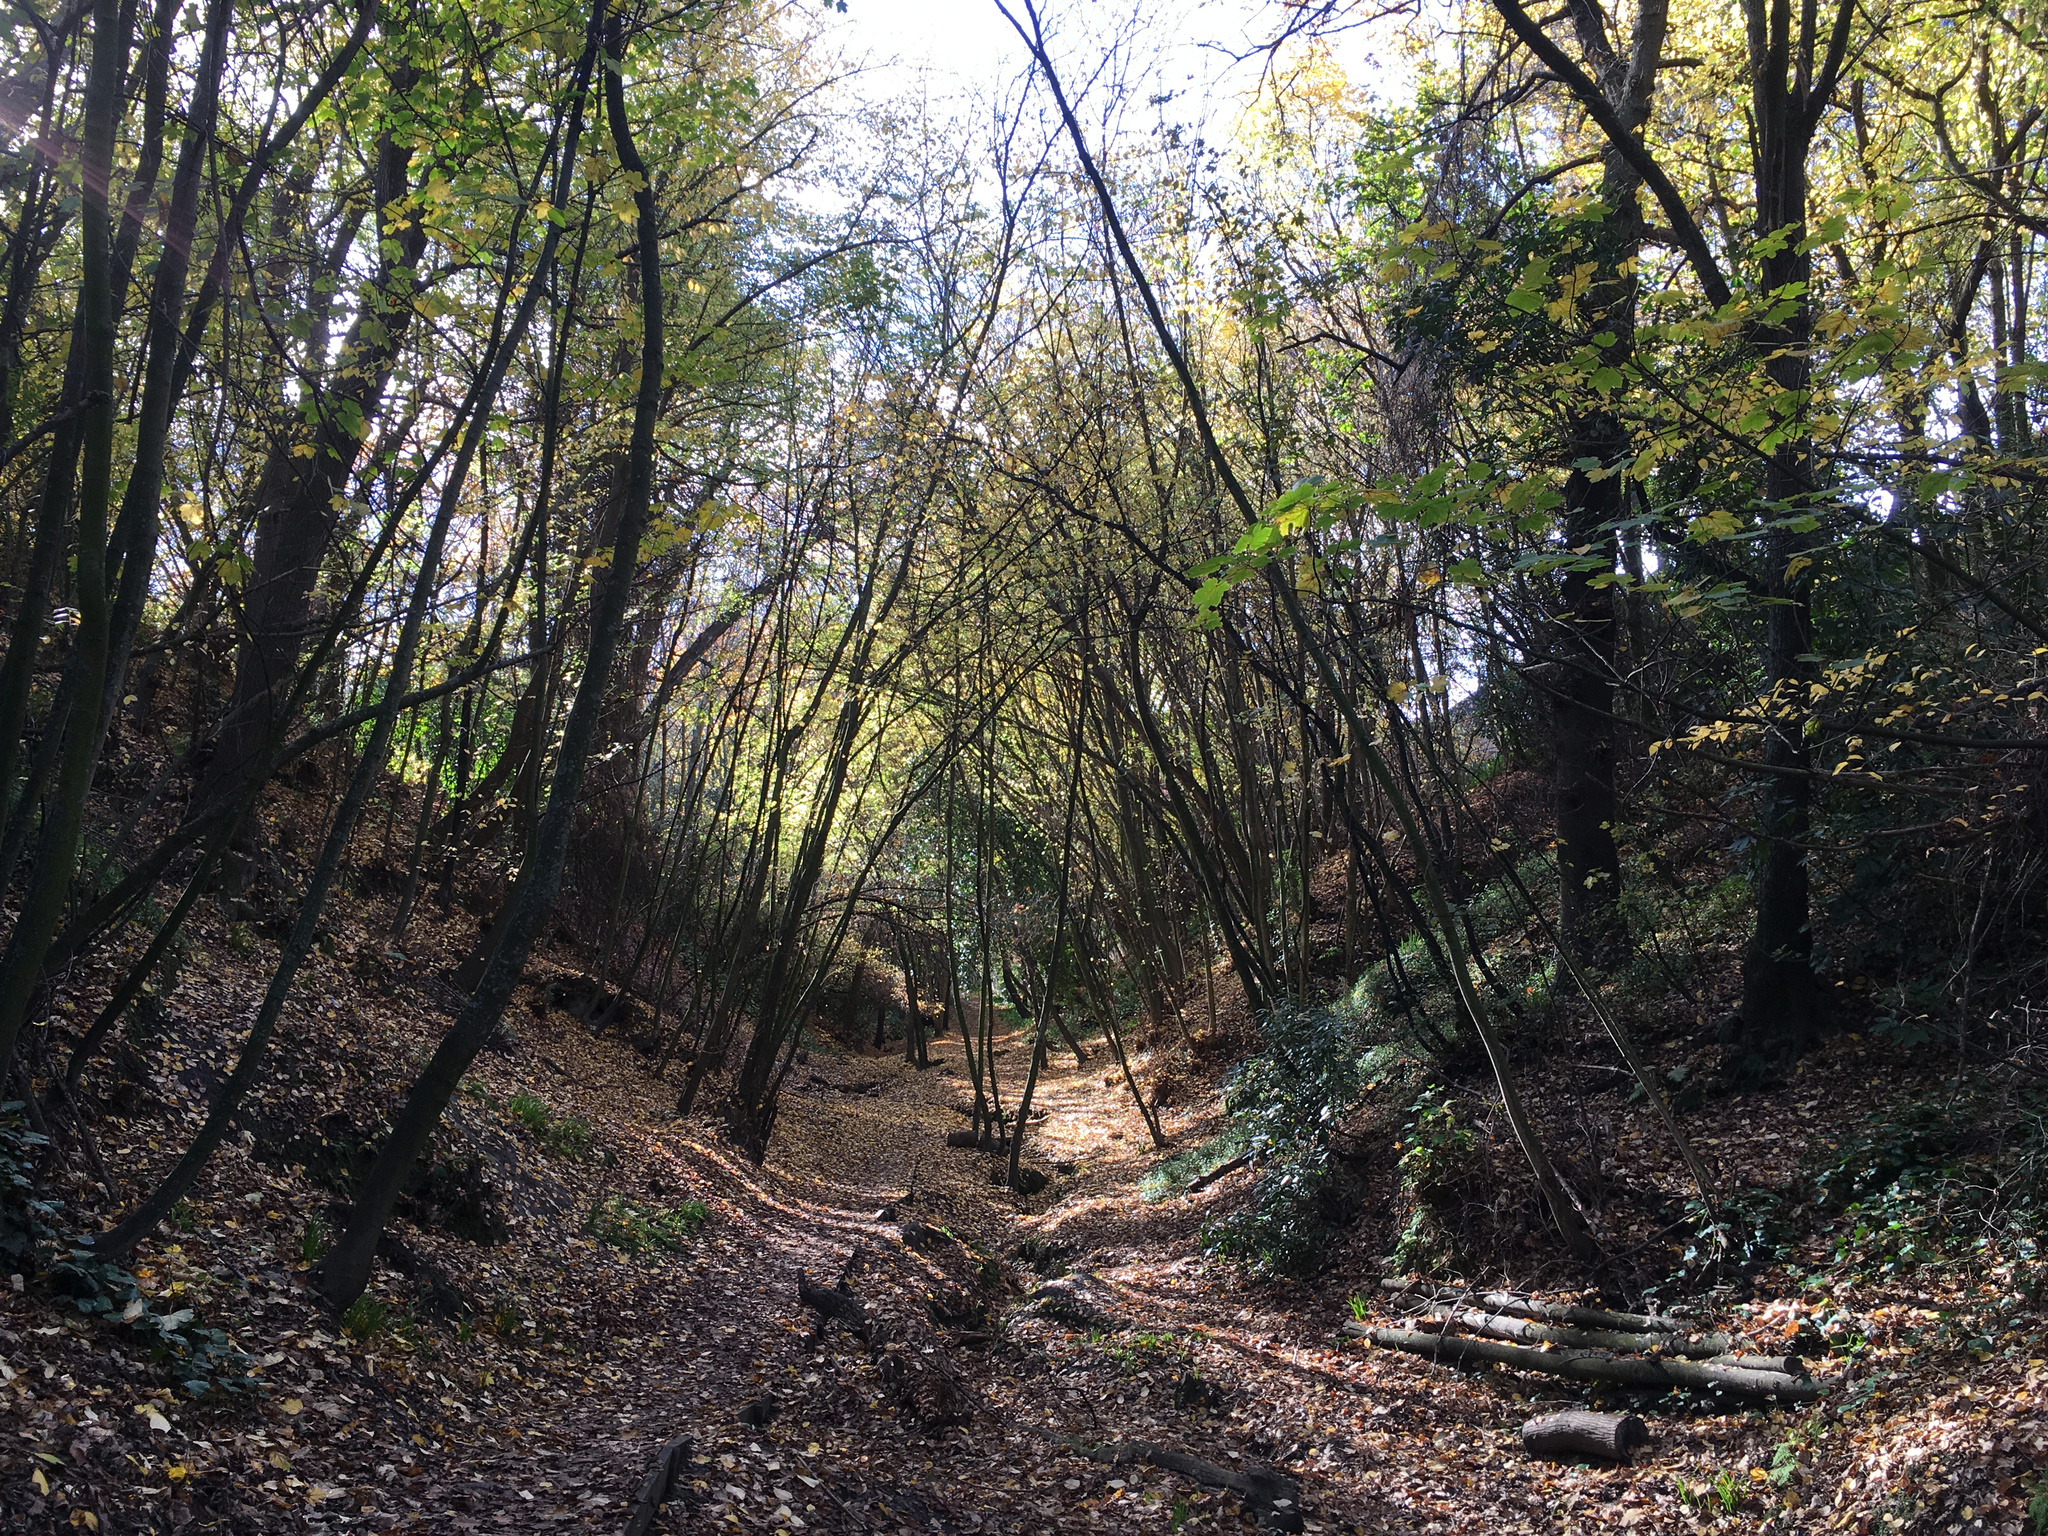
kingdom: Plantae
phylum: Tracheophyta
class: Magnoliopsida
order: Sapindales
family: Sapindaceae
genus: Acer
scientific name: Acer pseudoplatanus
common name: Sycamore
